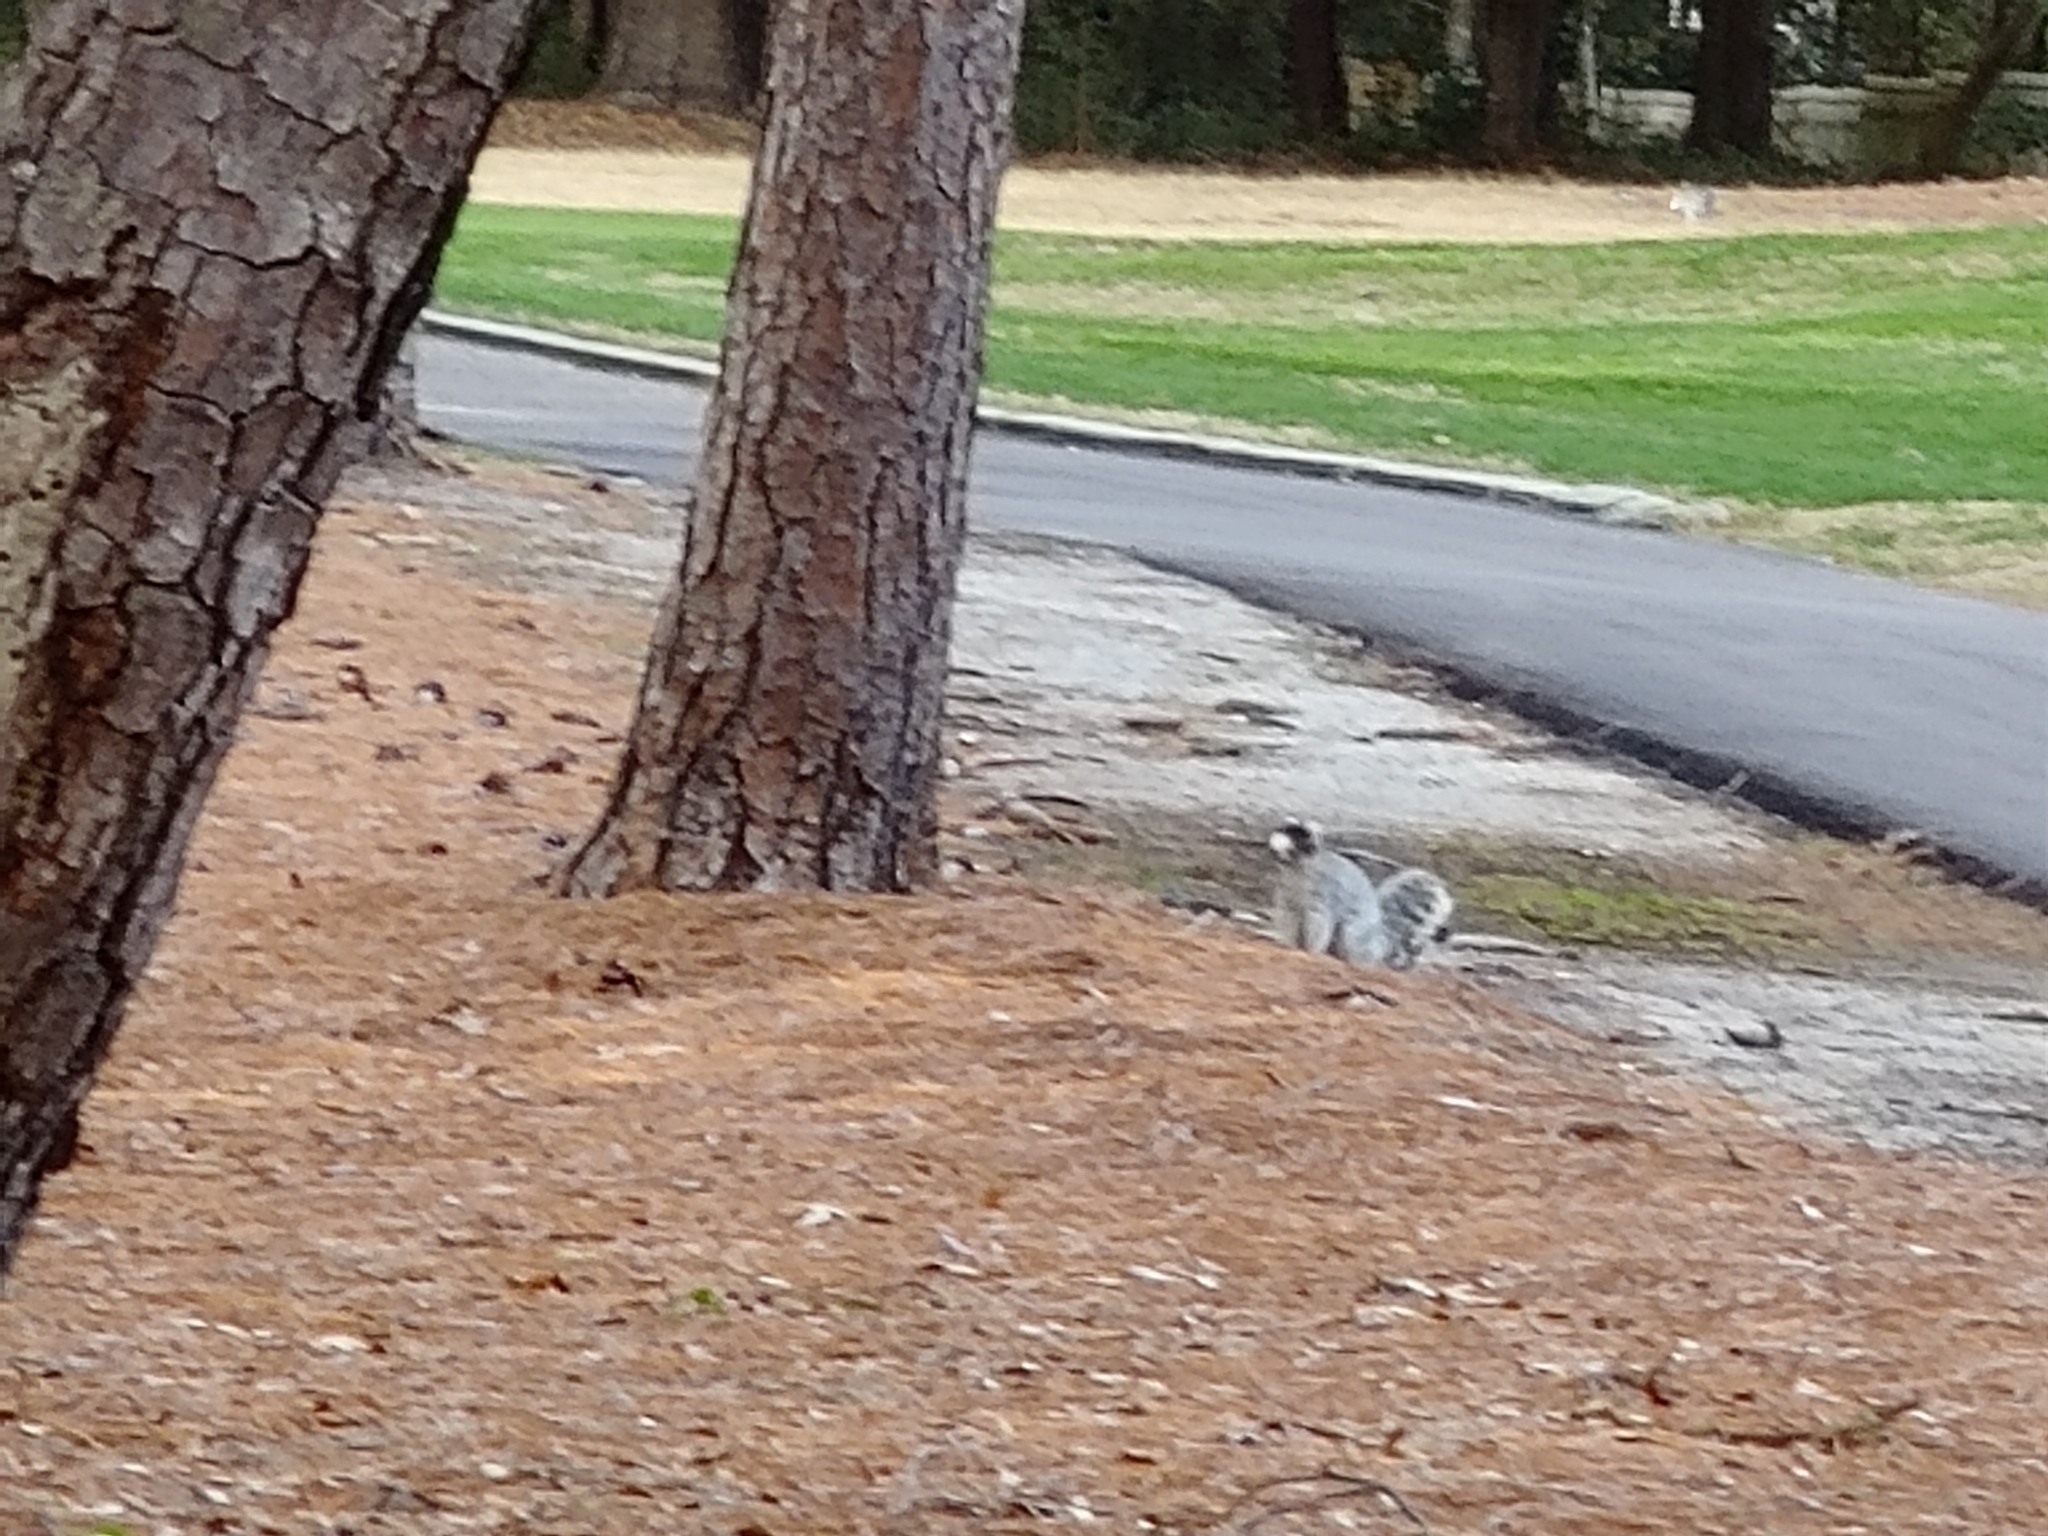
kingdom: Animalia
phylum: Chordata
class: Mammalia
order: Rodentia
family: Sciuridae
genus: Sciurus
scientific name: Sciurus niger
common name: Fox squirrel
